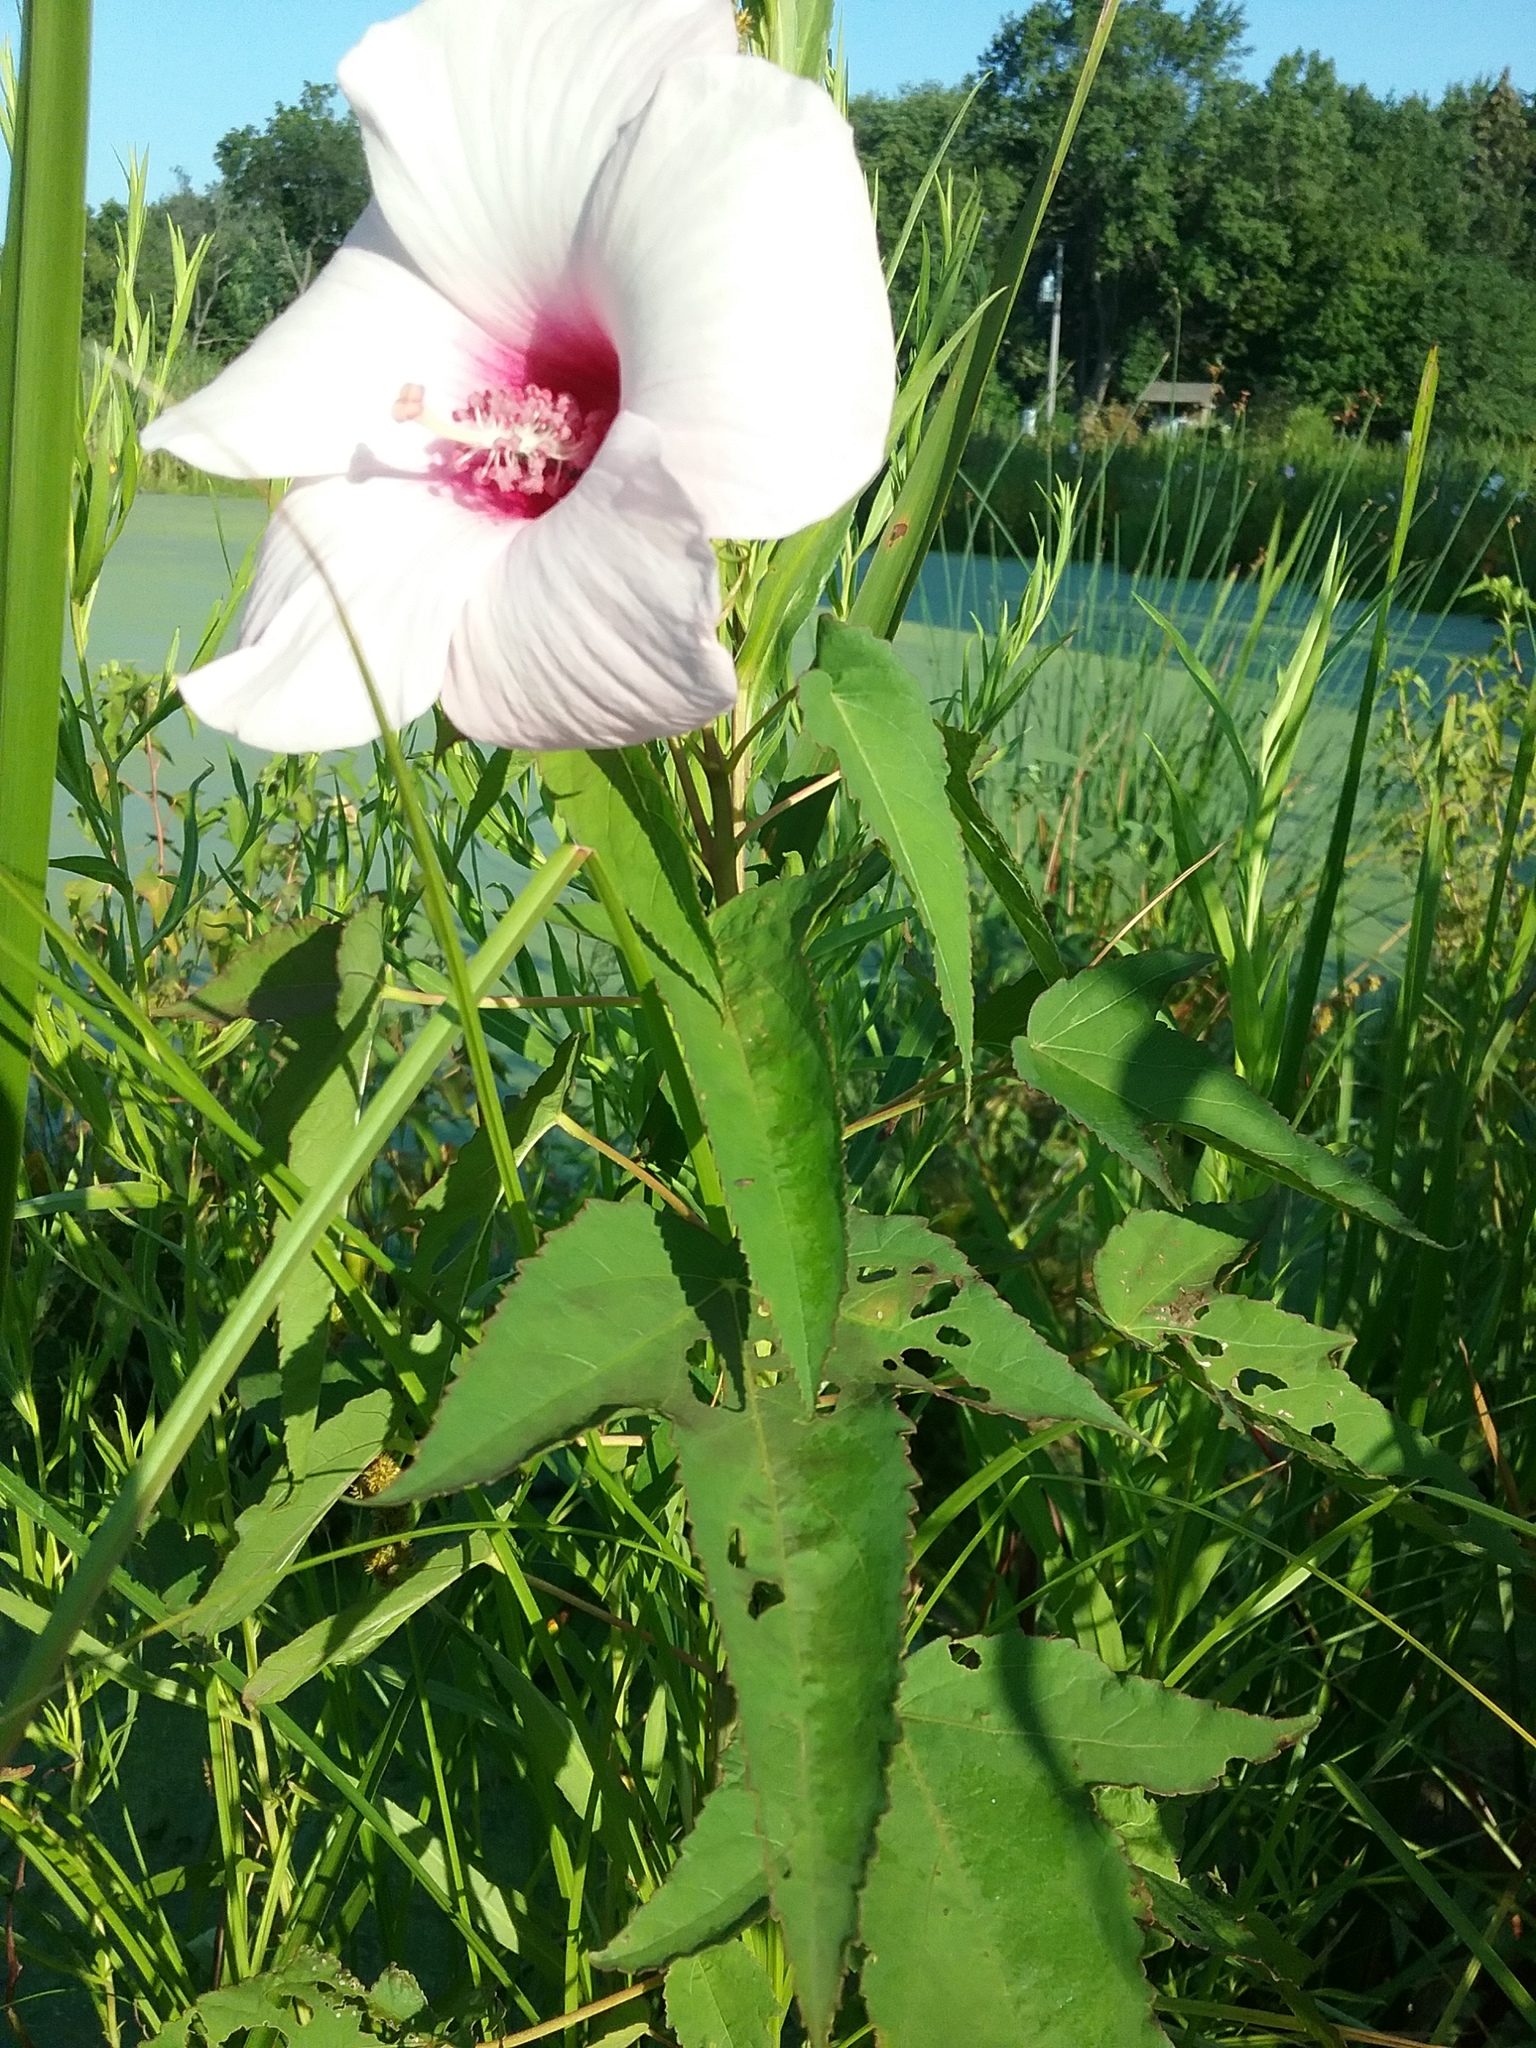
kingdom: Plantae
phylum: Tracheophyta
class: Magnoliopsida
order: Malvales
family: Malvaceae
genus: Hibiscus
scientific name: Hibiscus laevis
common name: Scarlet rose-mallow
